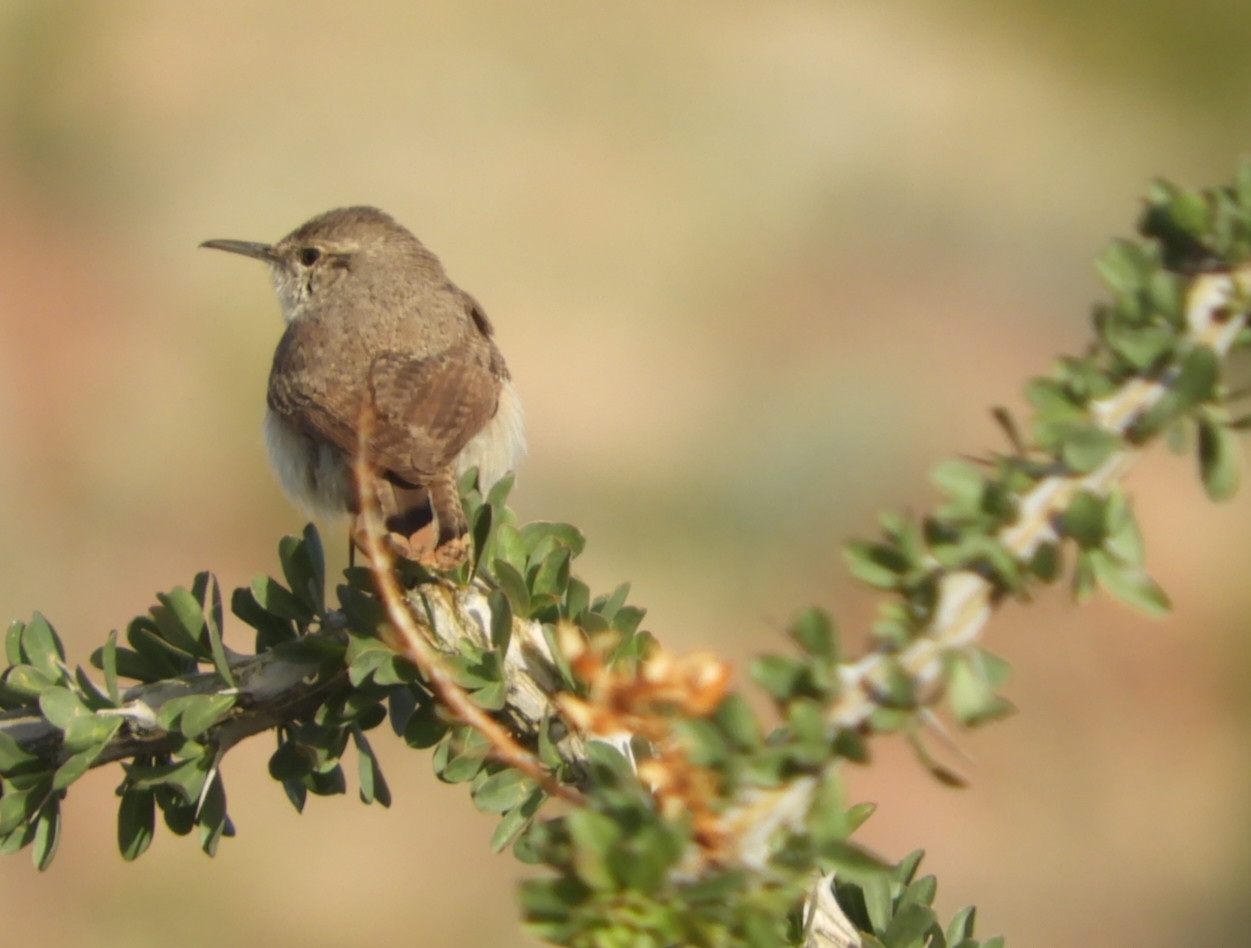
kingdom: Animalia
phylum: Chordata
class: Aves
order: Passeriformes
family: Troglodytidae
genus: Salpinctes
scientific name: Salpinctes obsoletus
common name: Rock wren
